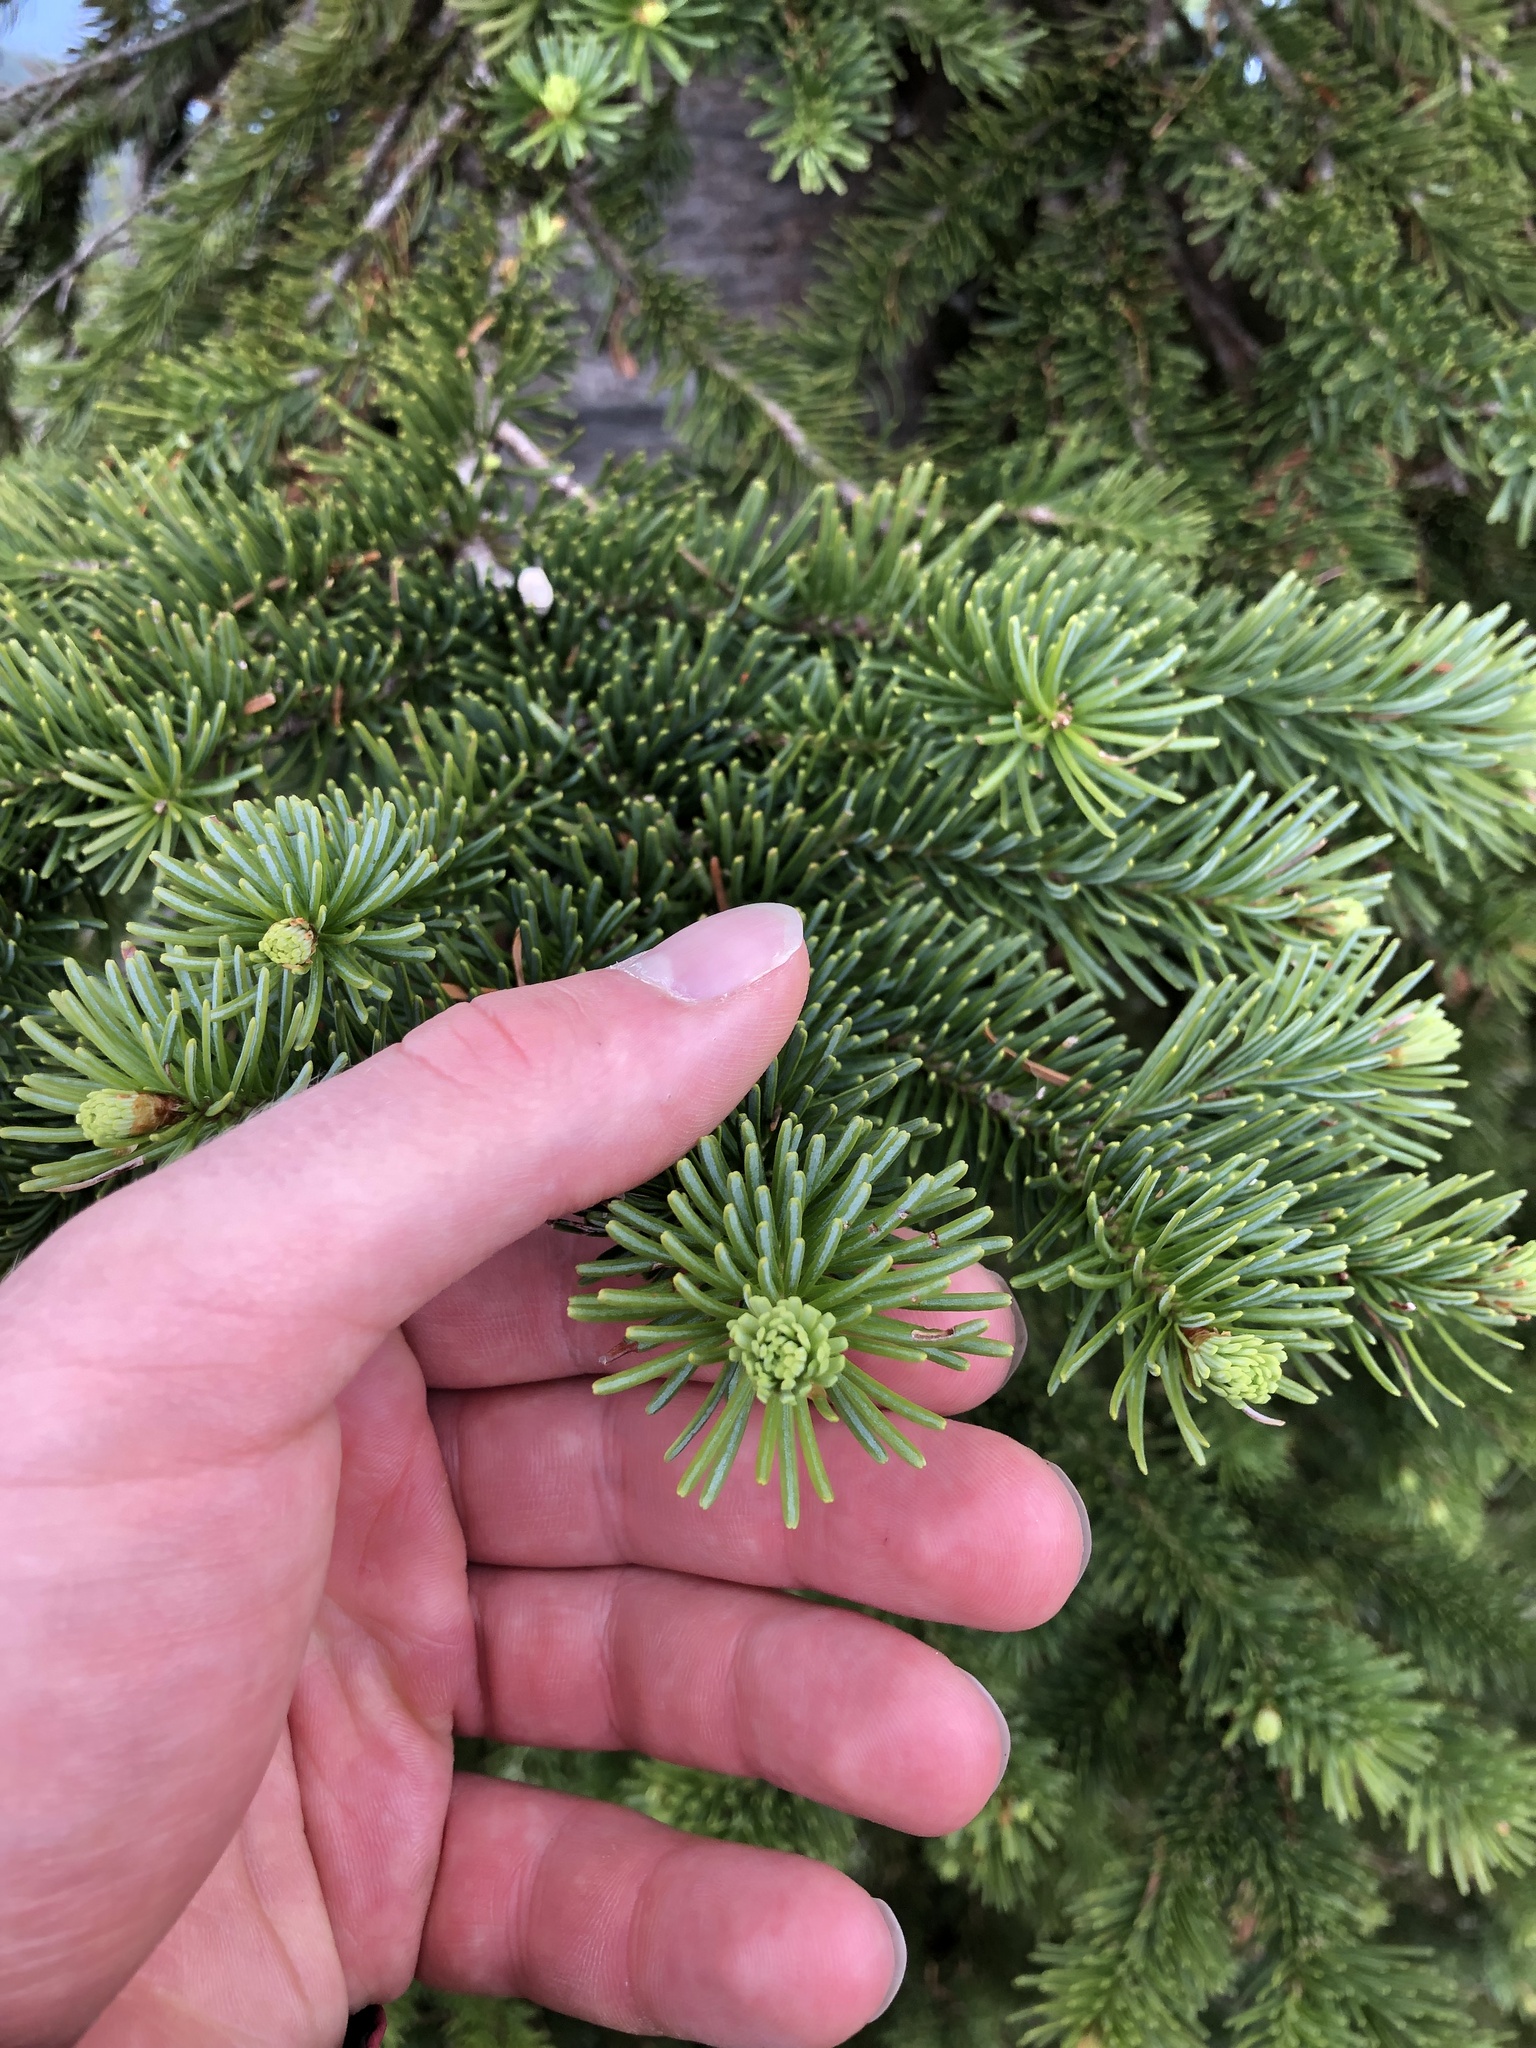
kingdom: Plantae
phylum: Tracheophyta
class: Pinopsida
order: Pinales
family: Pinaceae
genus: Abies
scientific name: Abies lasiocarpa
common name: Subalpine fir
